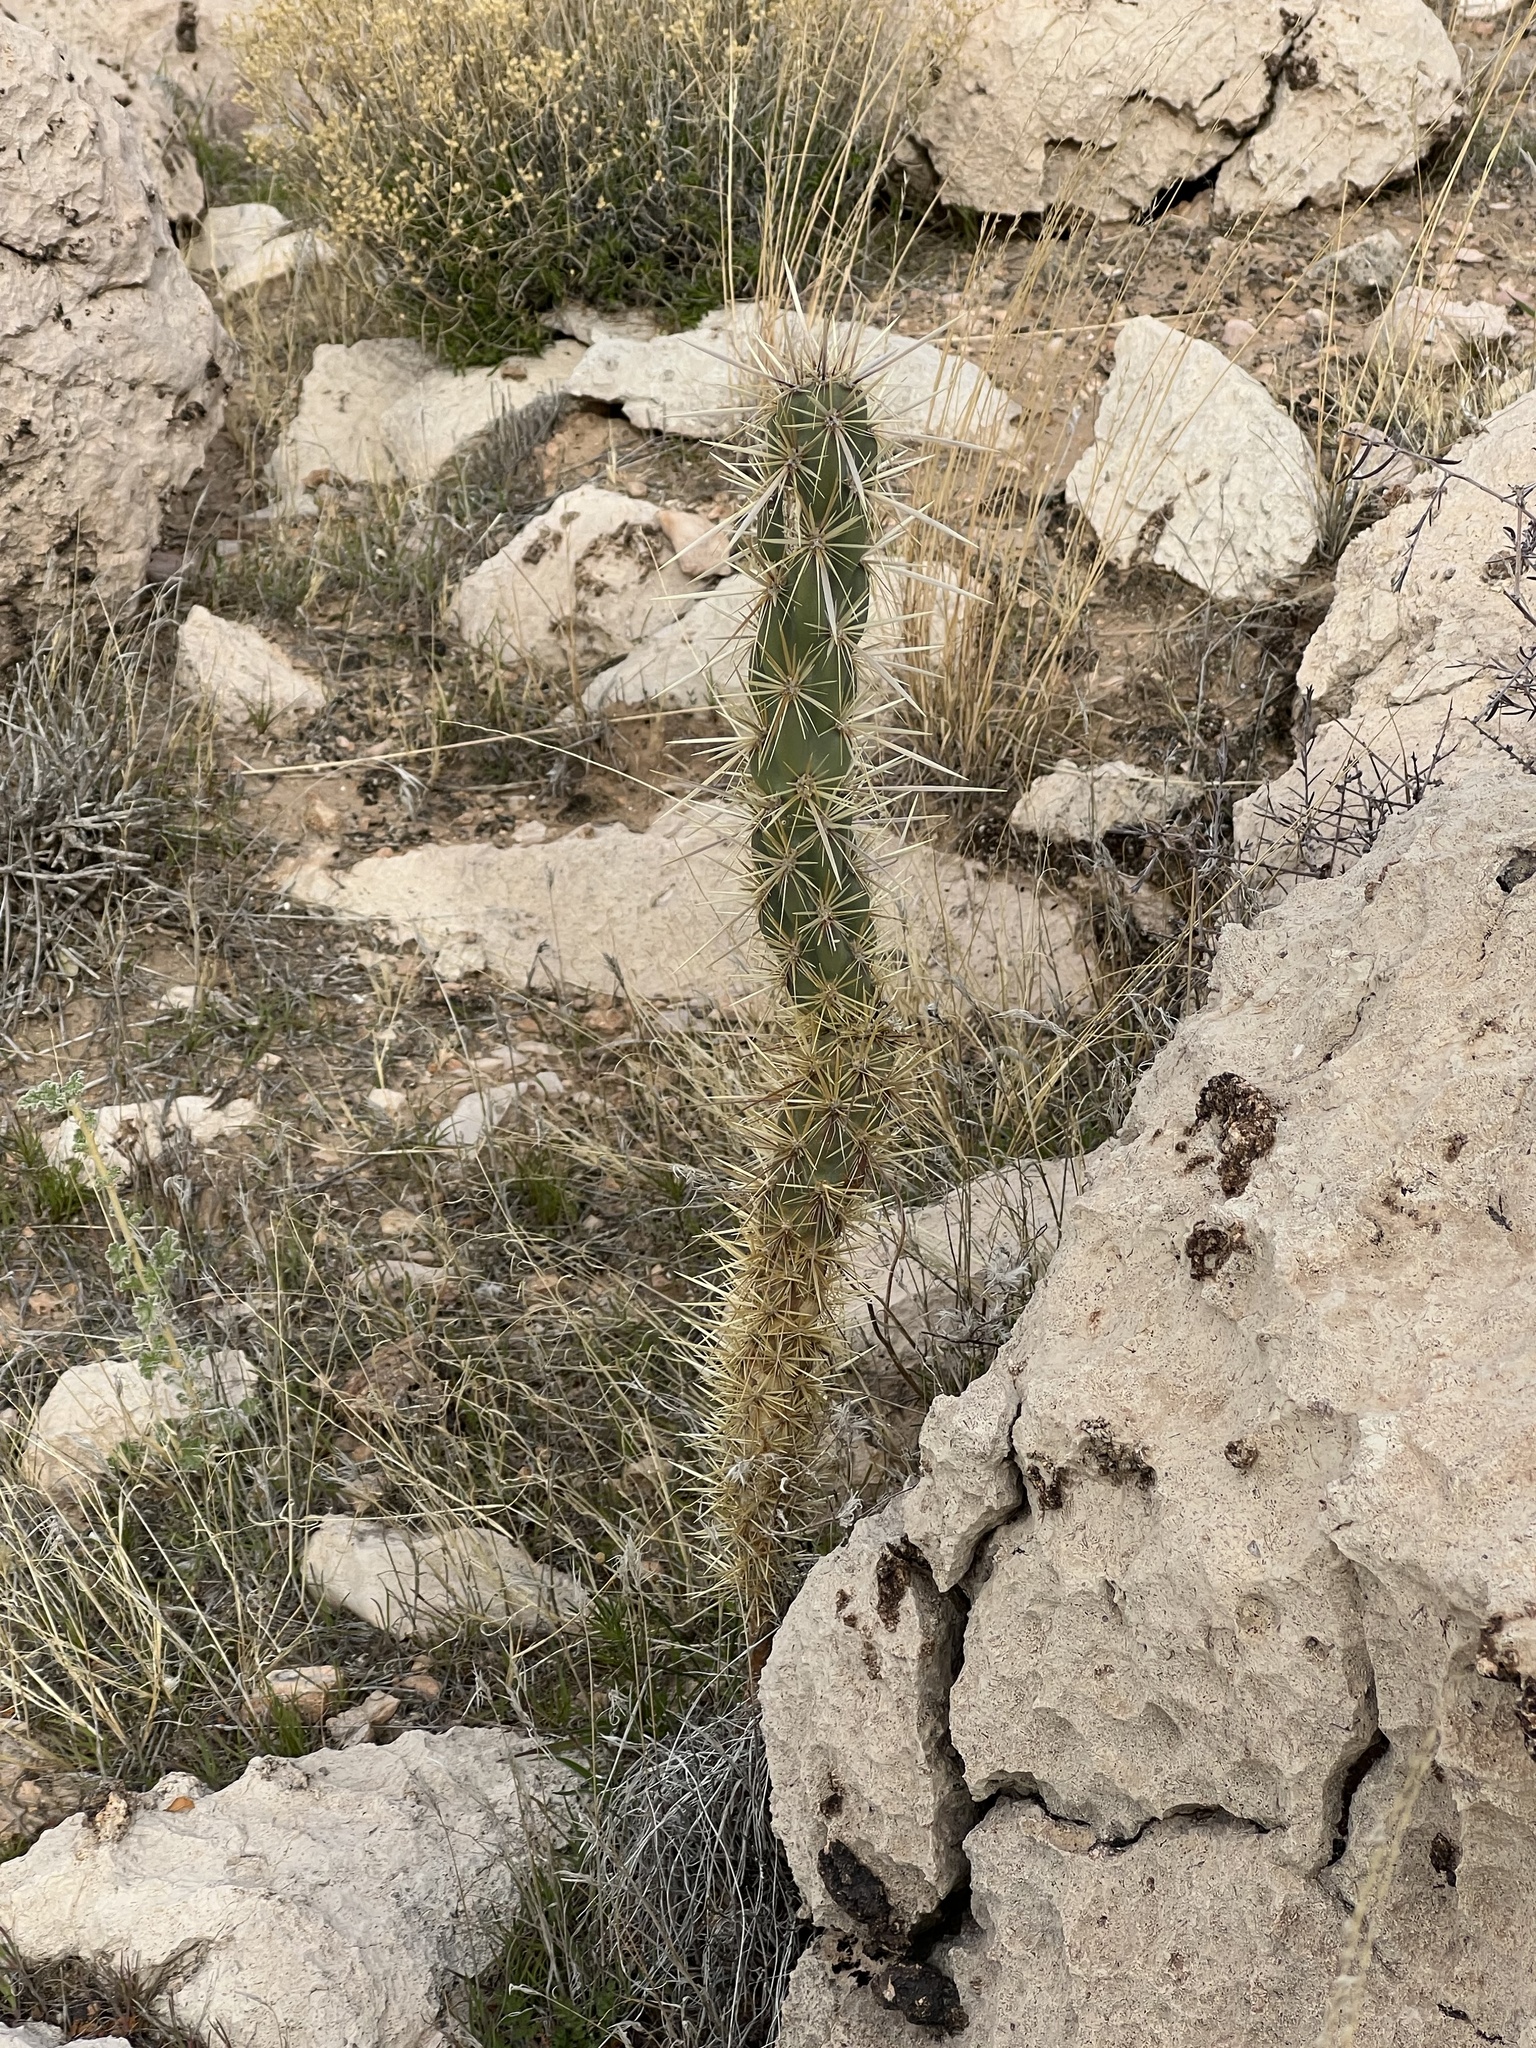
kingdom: Plantae
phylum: Tracheophyta
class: Magnoliopsida
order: Caryophyllales
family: Cactaceae
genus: Cylindropuntia
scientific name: Cylindropuntia acanthocarpa
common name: Buckhorn cholla
